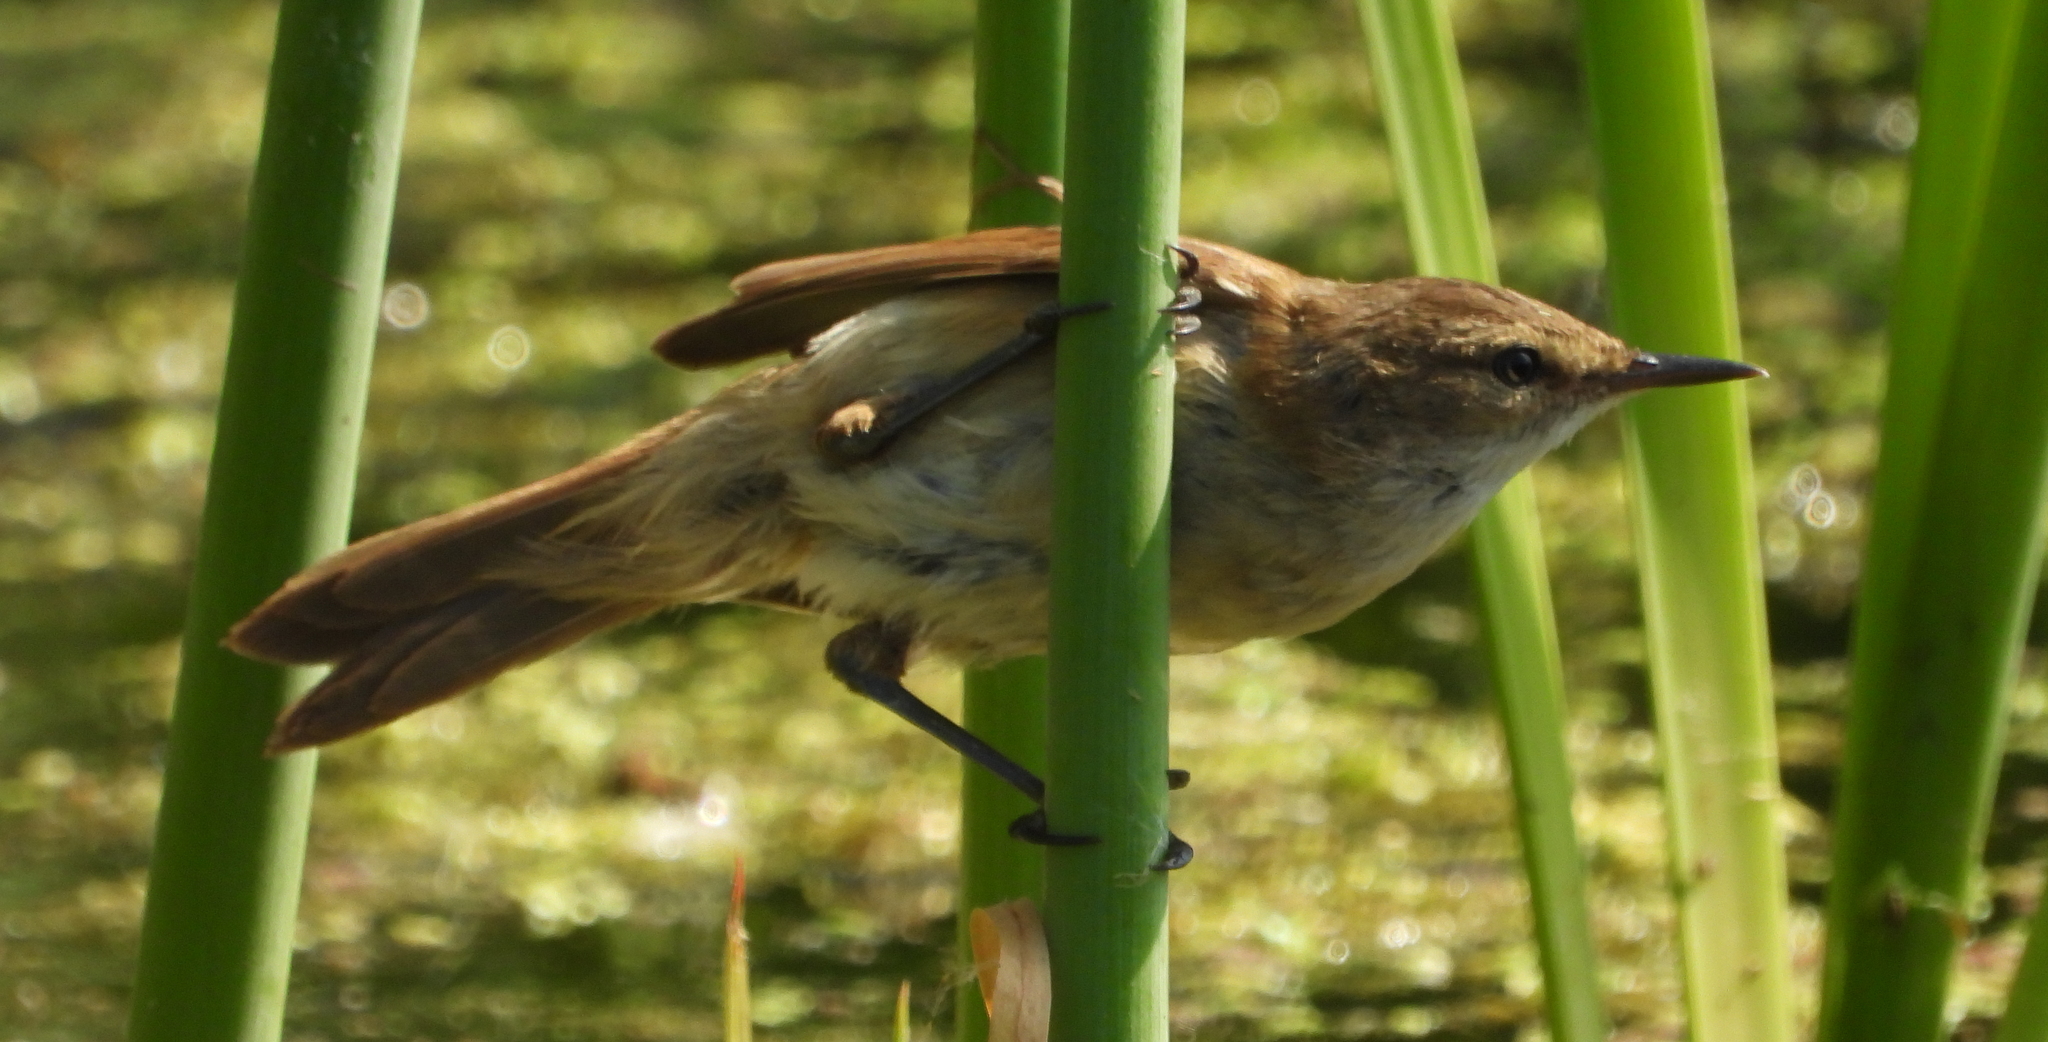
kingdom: Animalia
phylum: Chordata
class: Aves
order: Passeriformes
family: Acrocephalidae
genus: Acrocephalus
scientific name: Acrocephalus gracilirostris
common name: Lesser swamp warbler
